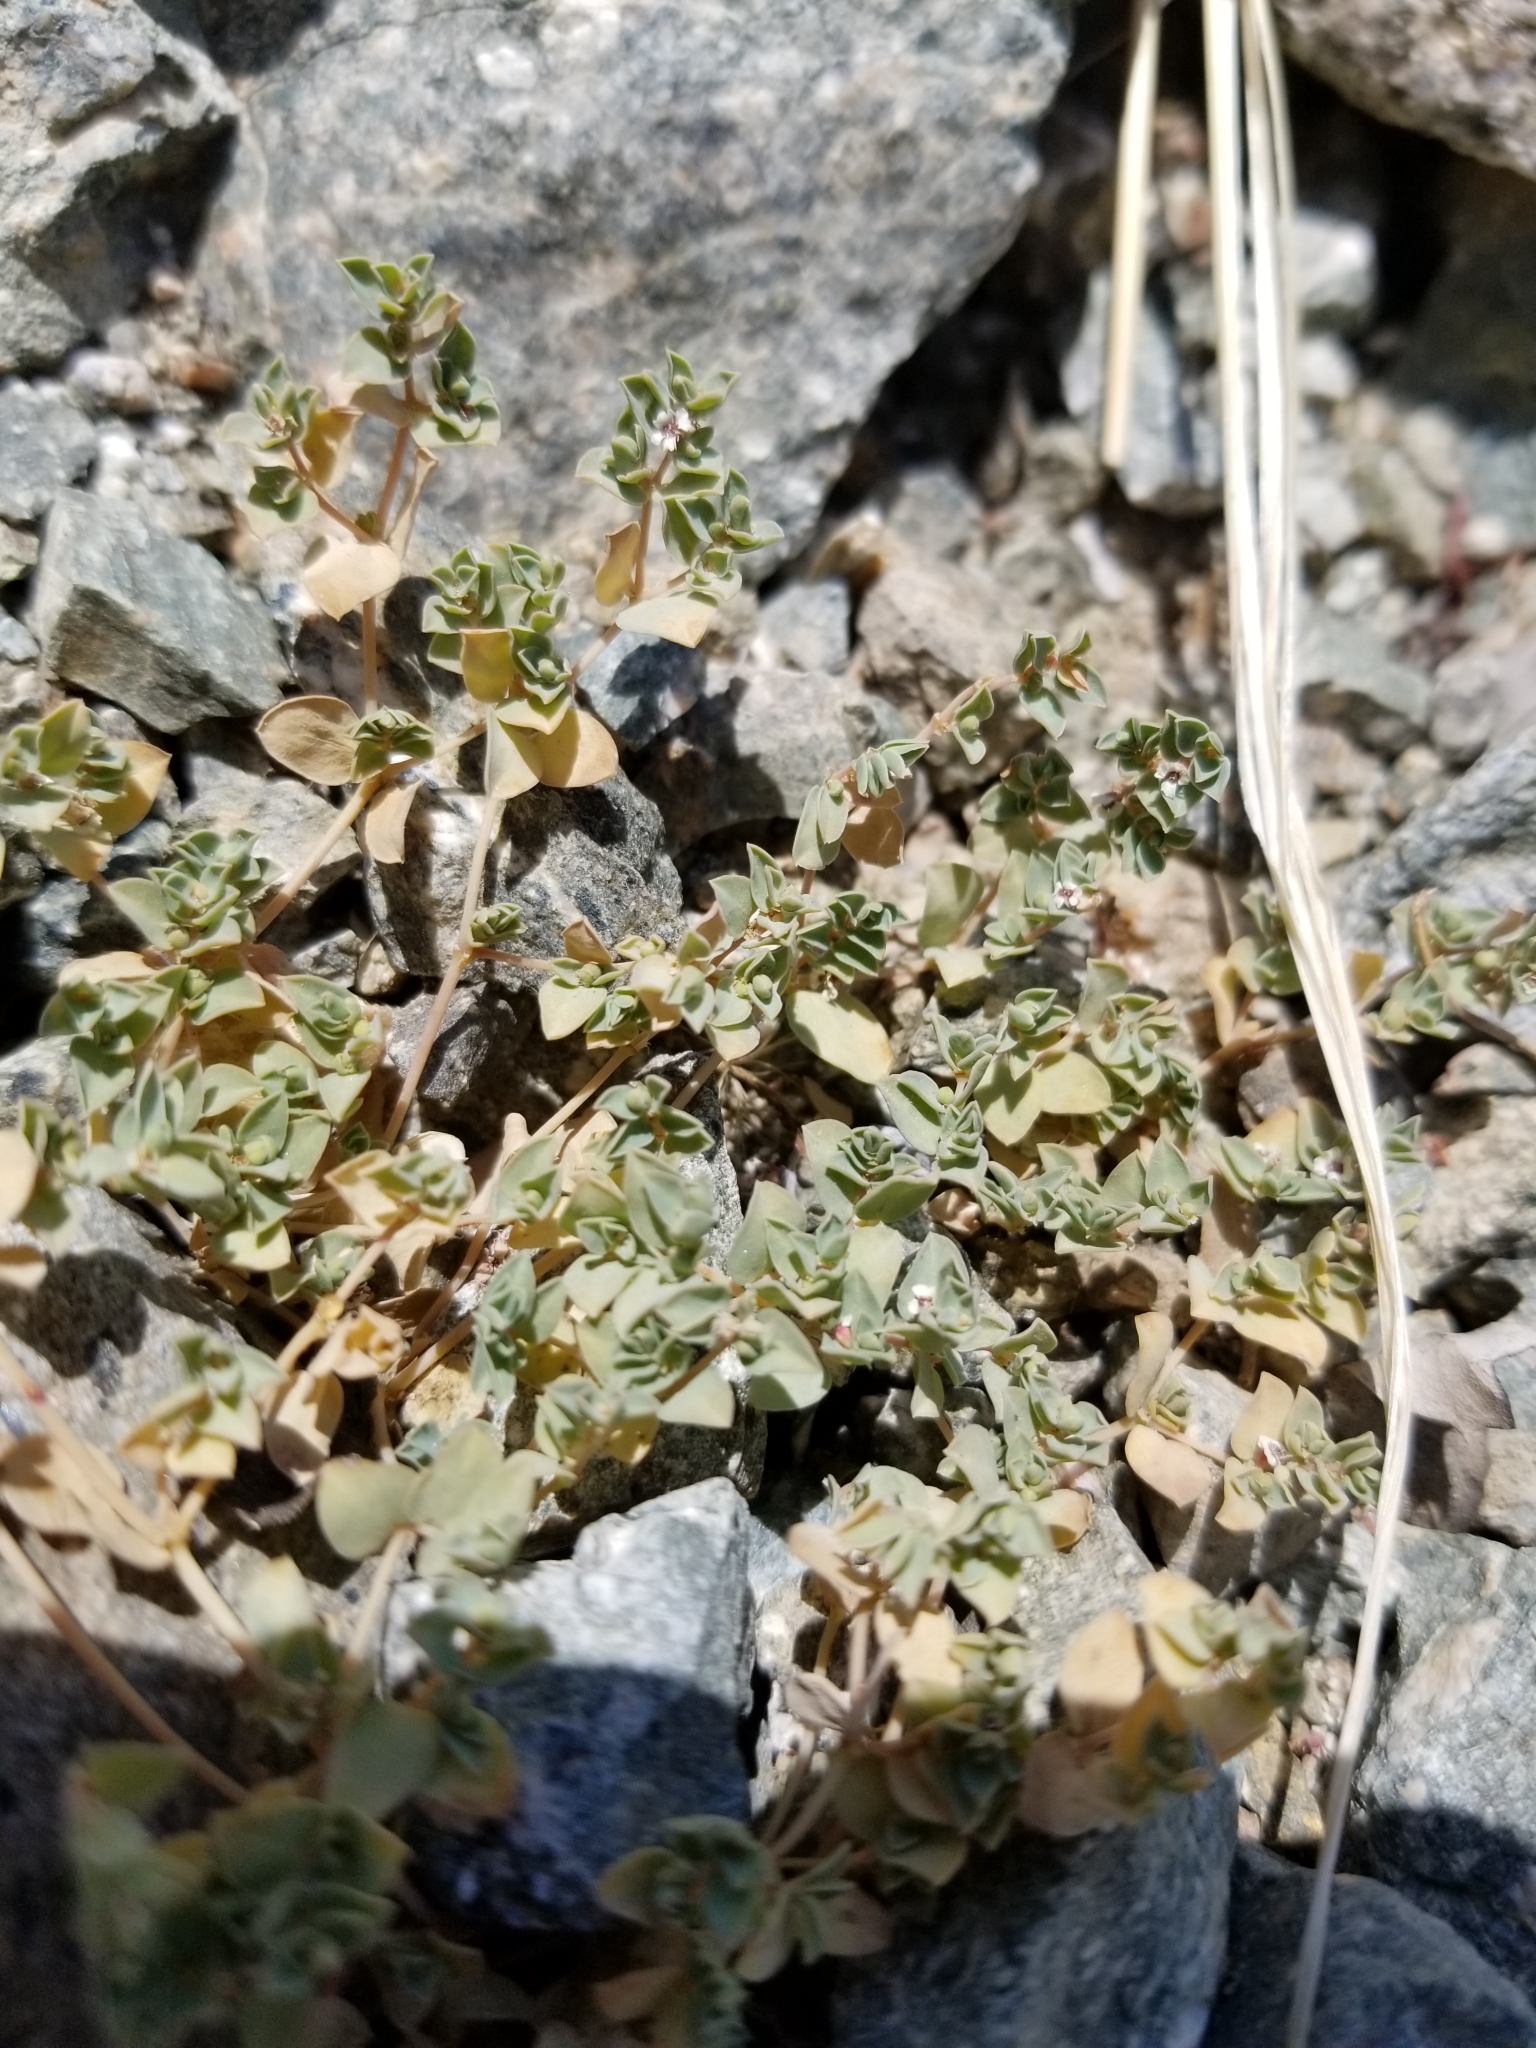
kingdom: Plantae
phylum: Tracheophyta
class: Magnoliopsida
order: Malpighiales
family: Euphorbiaceae
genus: Euphorbia
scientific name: Euphorbia albomarginata
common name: Whitemargin sandmat
